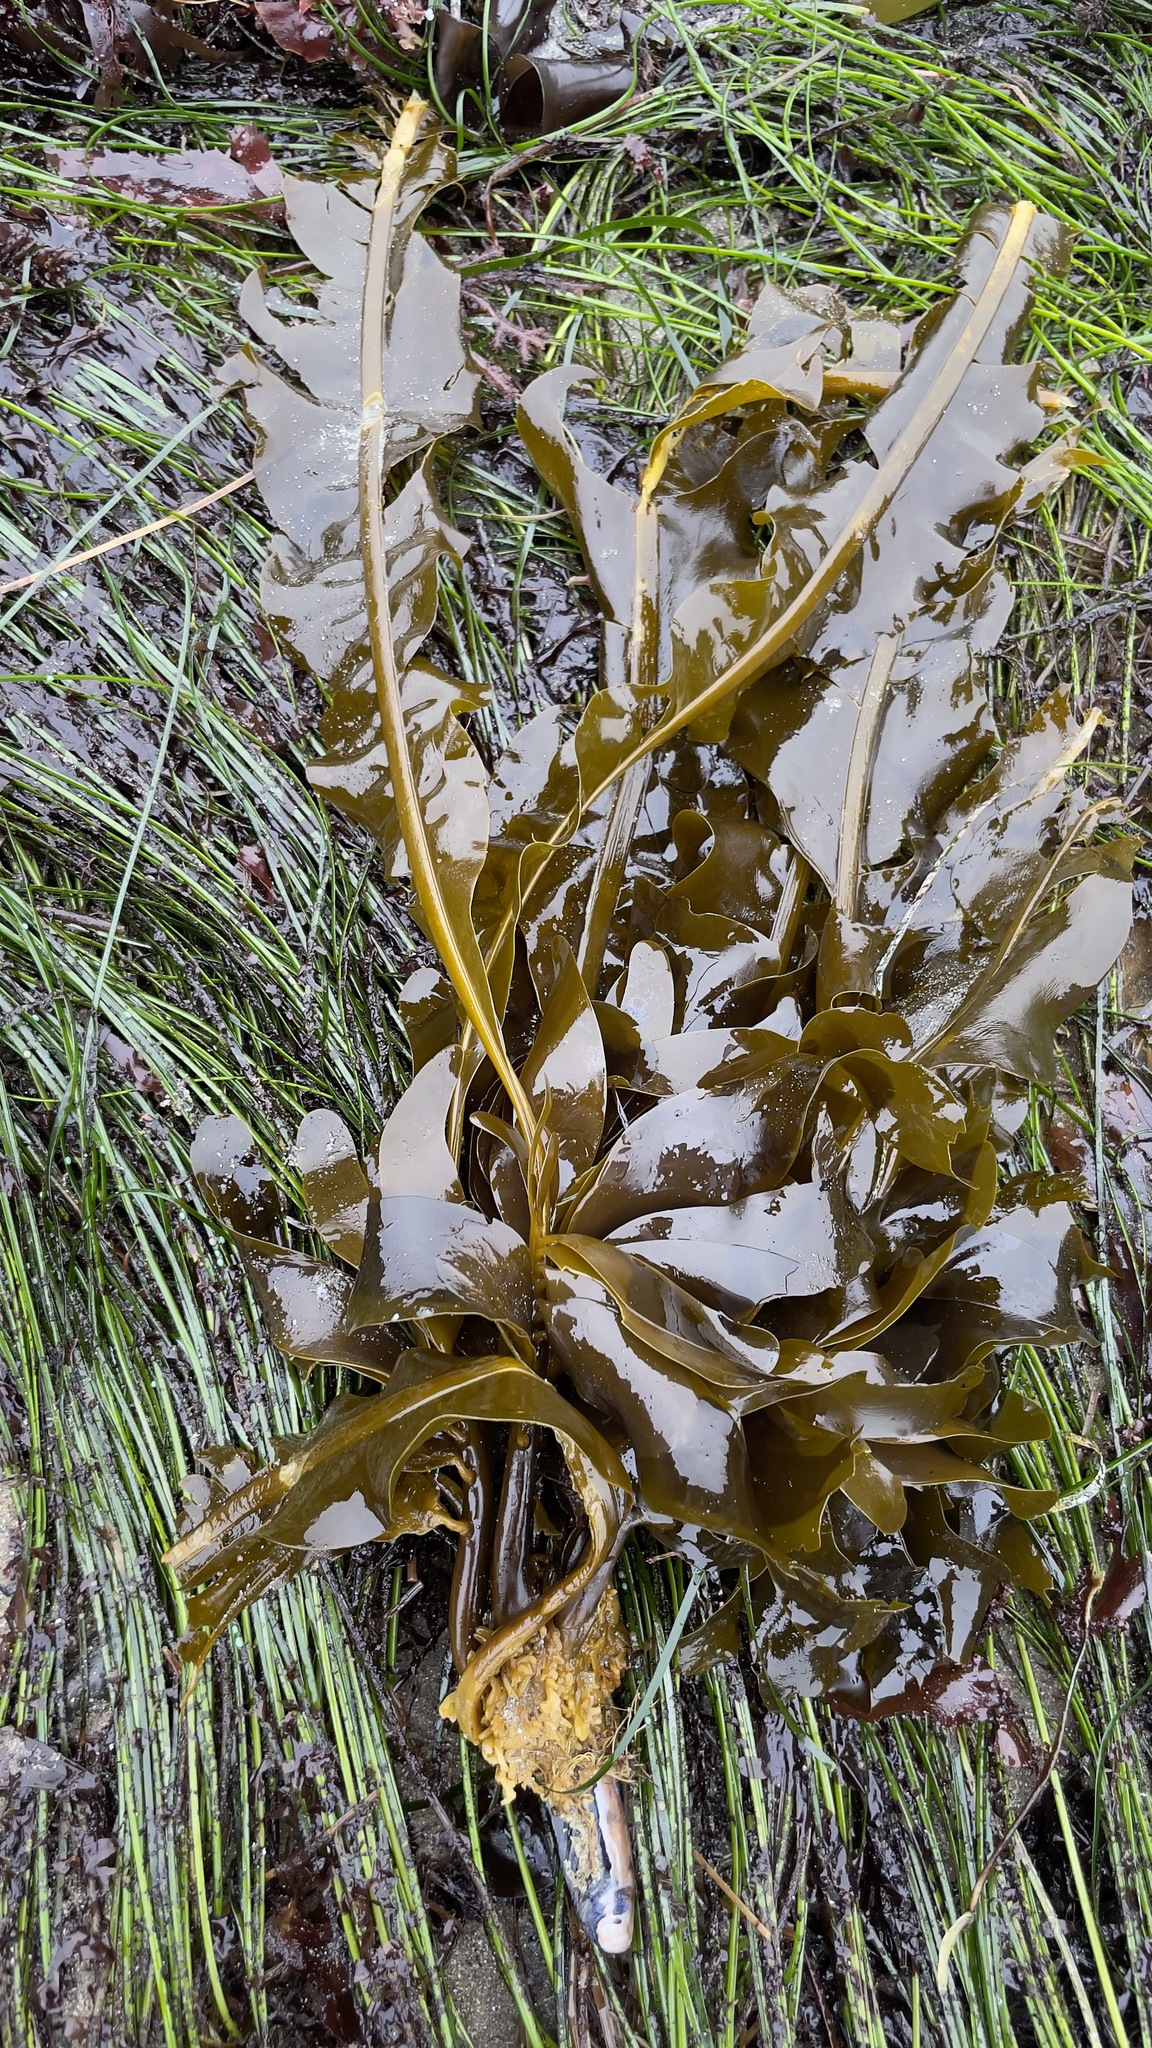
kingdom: Chromista
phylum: Ochrophyta
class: Phaeophyceae
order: Laminariales
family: Alariaceae
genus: Alaria
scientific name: Alaria marginata
